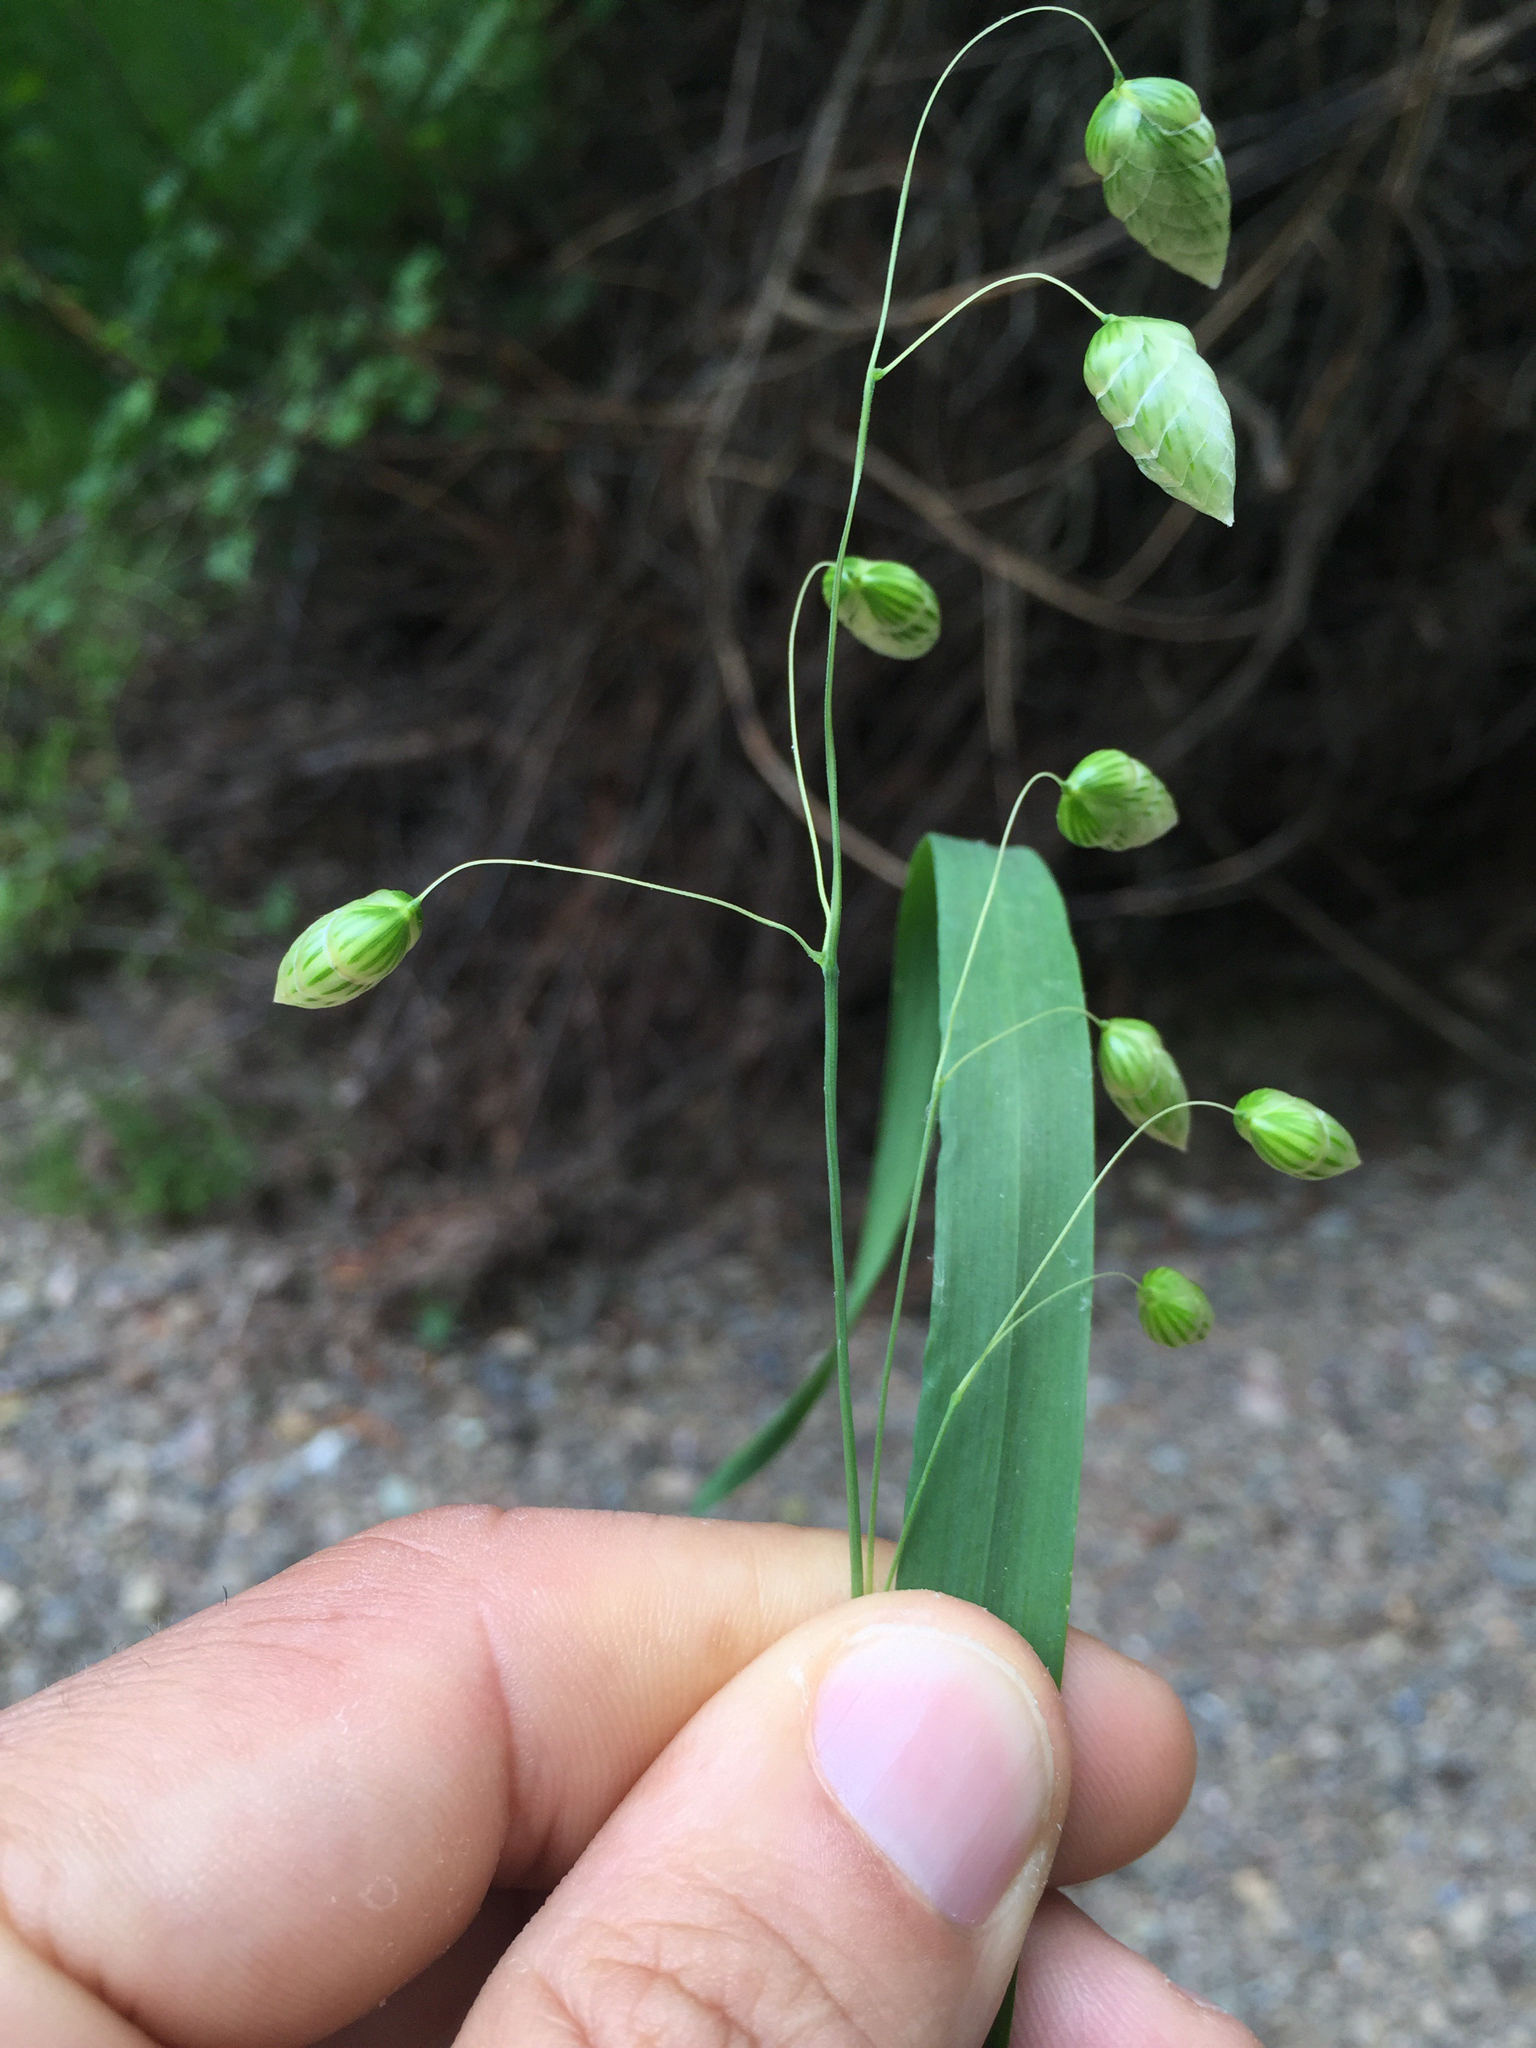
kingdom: Plantae
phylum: Tracheophyta
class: Liliopsida
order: Poales
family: Poaceae
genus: Briza
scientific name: Briza maxima
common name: Big quakinggrass
